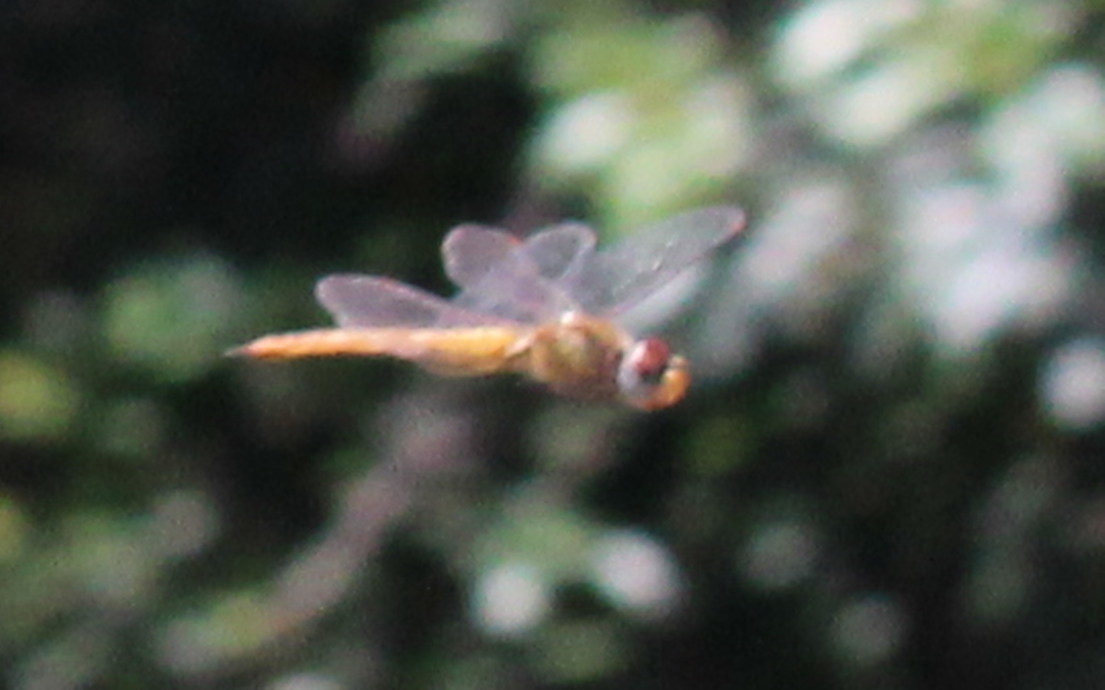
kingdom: Animalia
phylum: Arthropoda
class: Insecta
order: Odonata
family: Libellulidae
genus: Pantala
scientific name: Pantala flavescens
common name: Wandering glider
